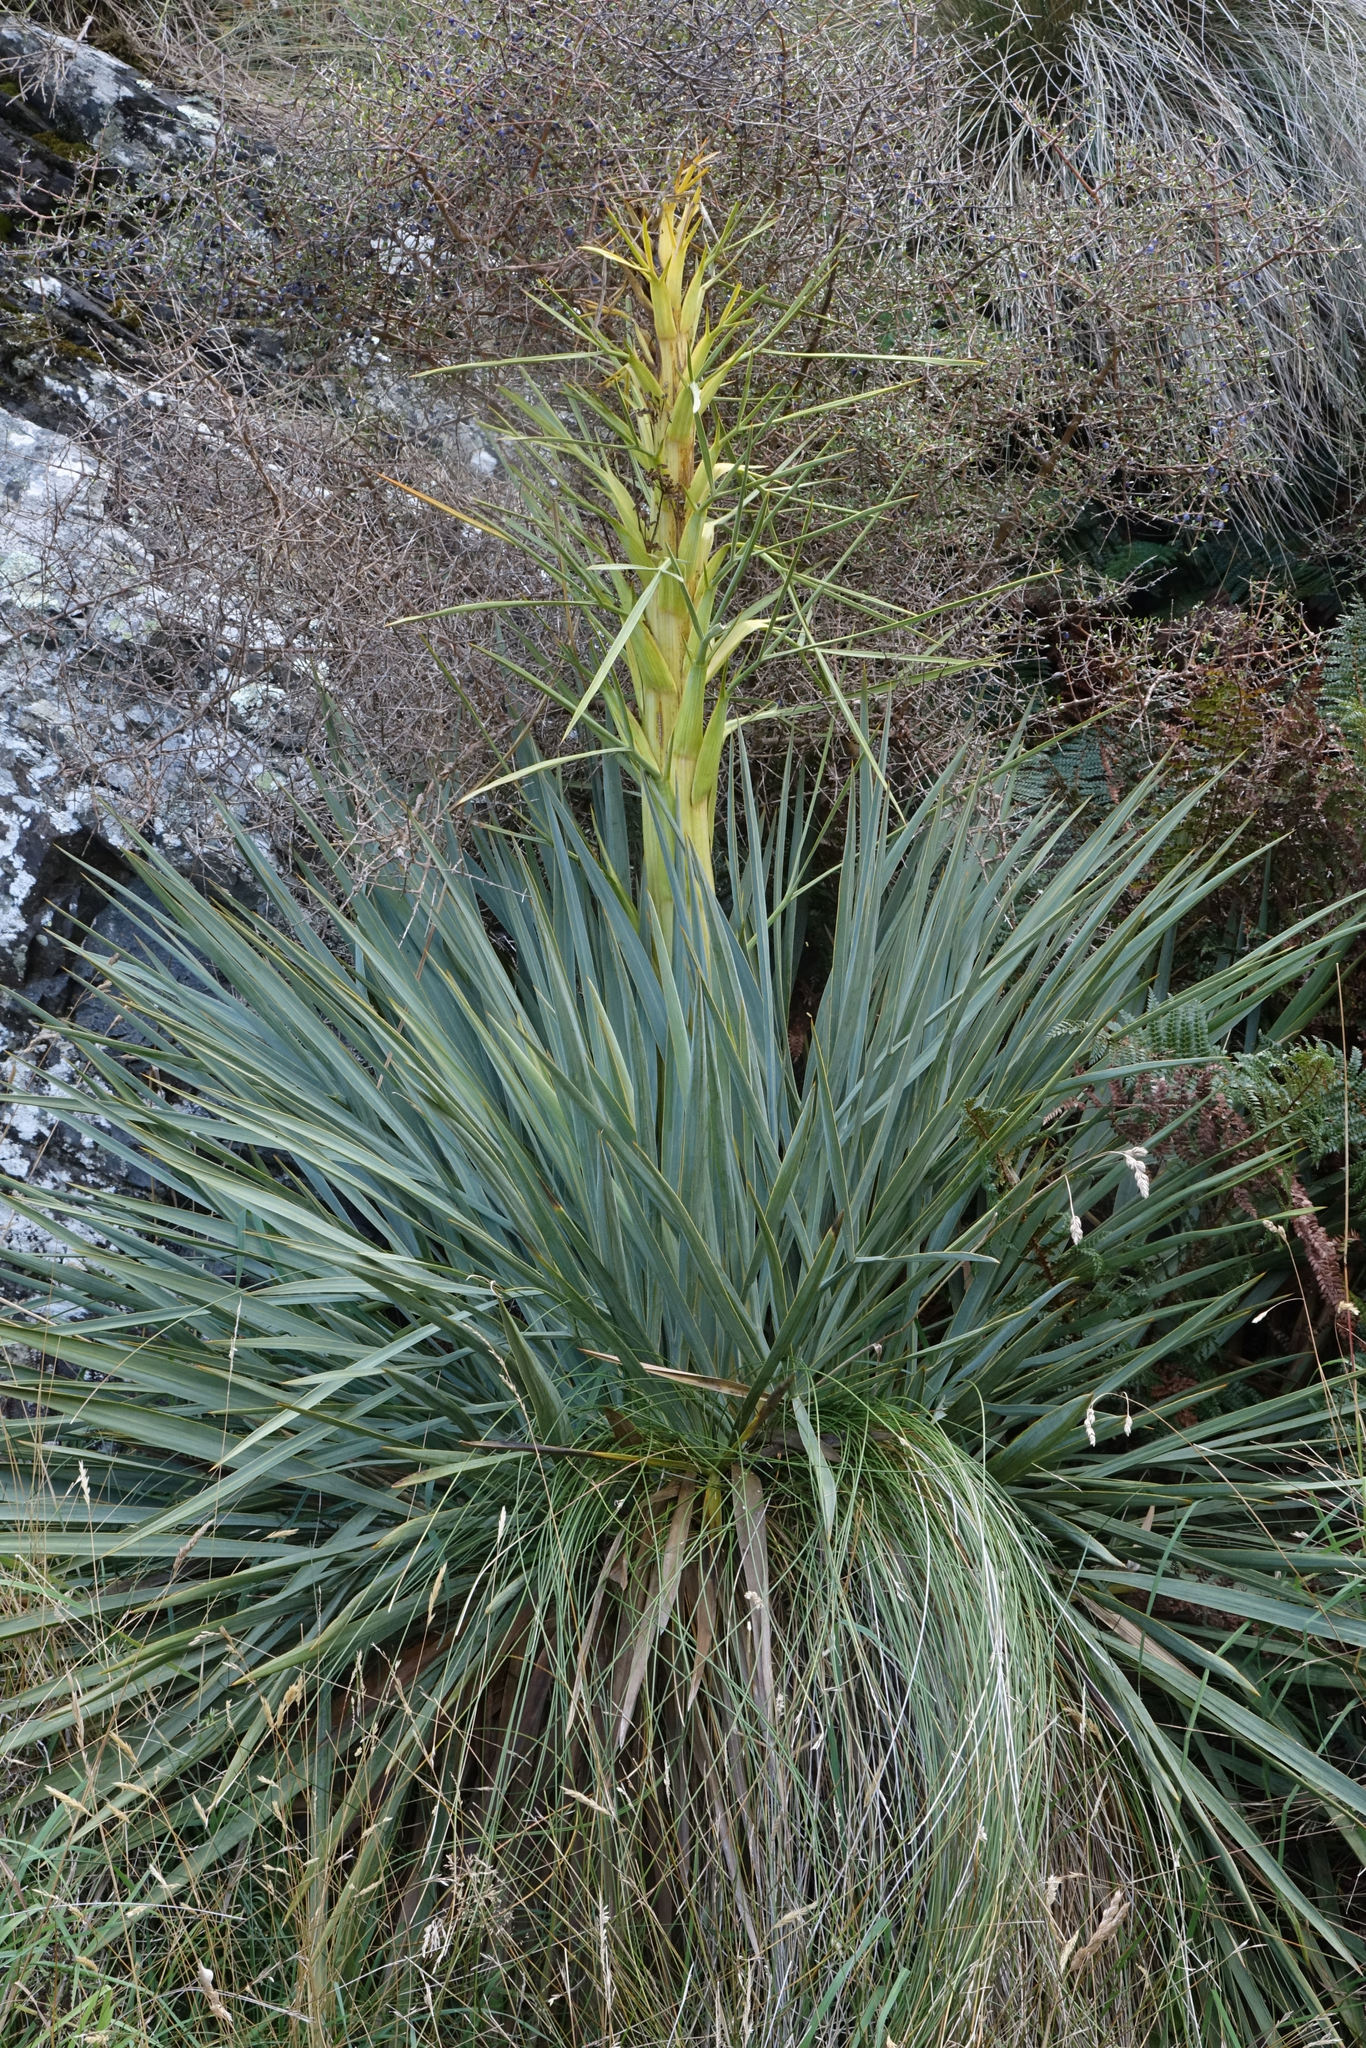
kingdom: Plantae
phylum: Tracheophyta
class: Magnoliopsida
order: Apiales
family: Apiaceae
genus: Aciphylla
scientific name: Aciphylla scott-thomsonii
